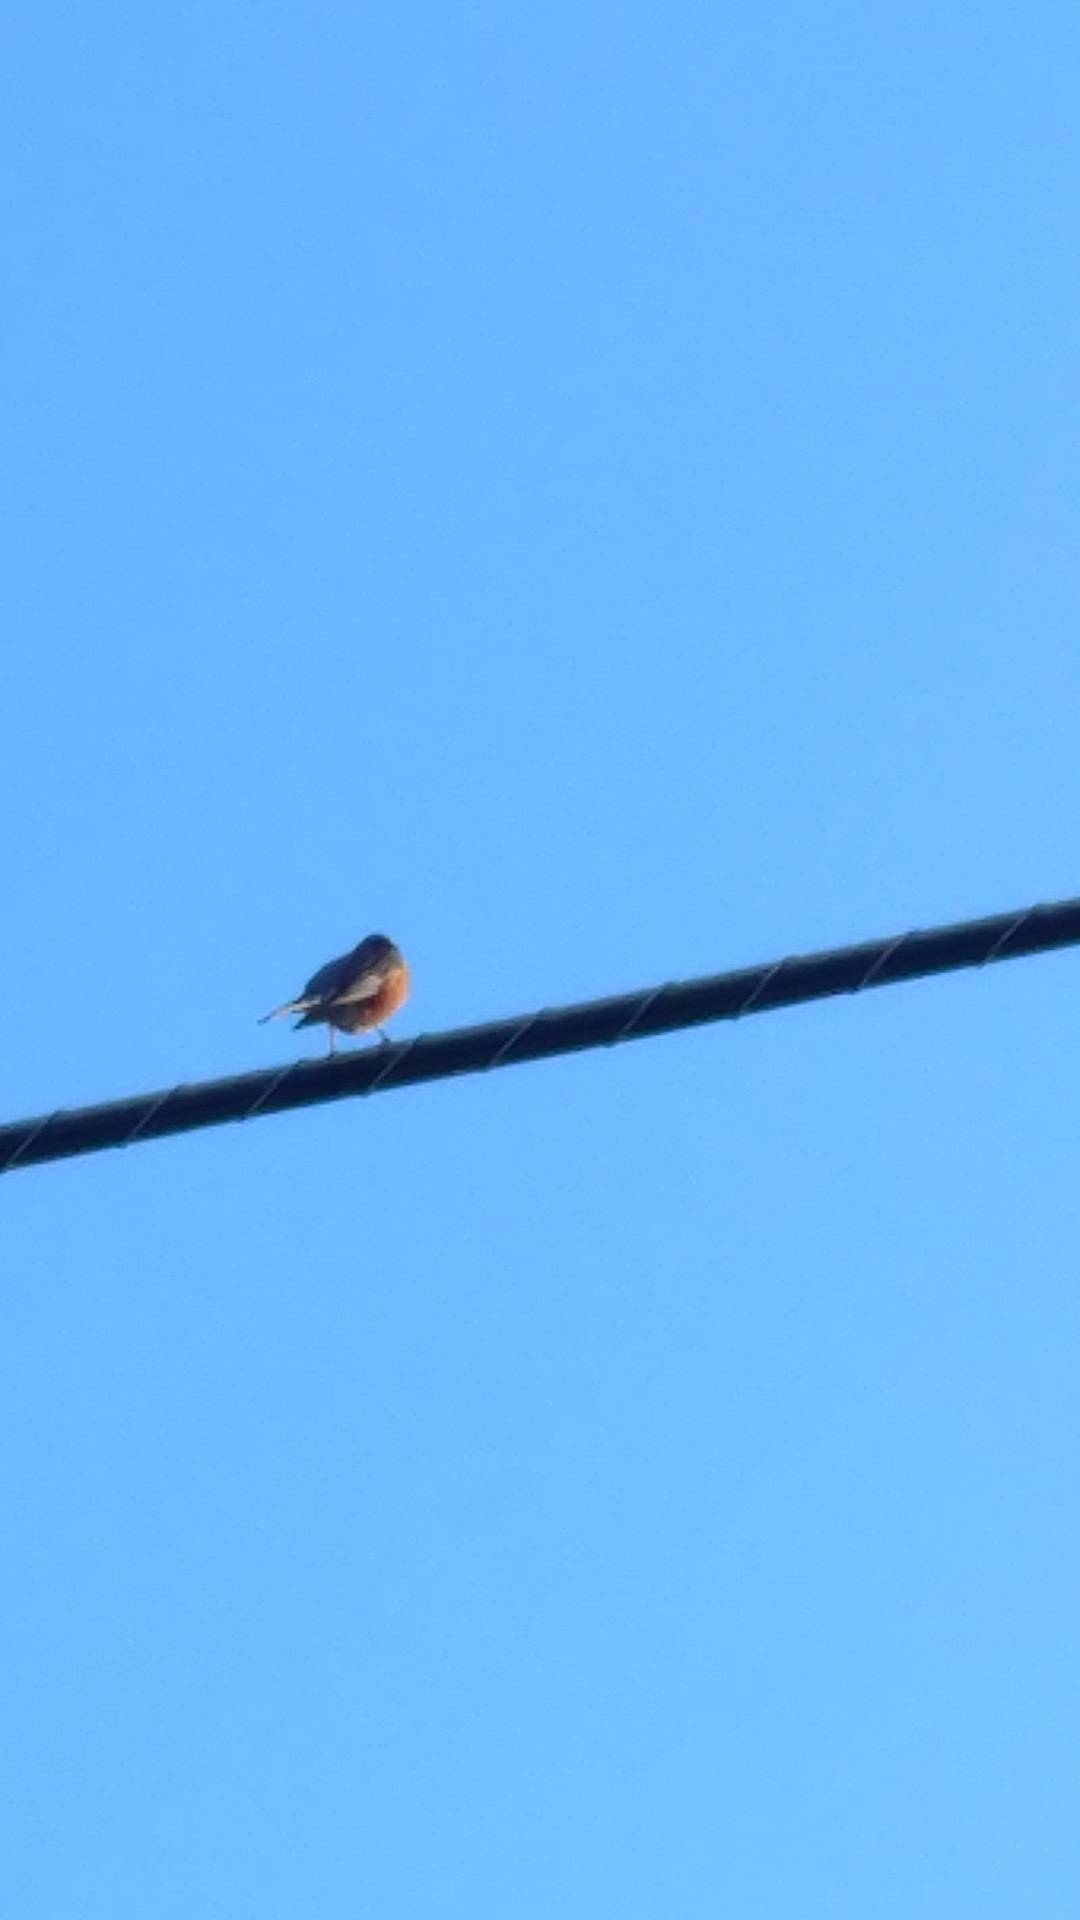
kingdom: Animalia
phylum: Chordata
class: Aves
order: Passeriformes
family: Turdidae
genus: Turdus
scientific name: Turdus migratorius
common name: American robin
